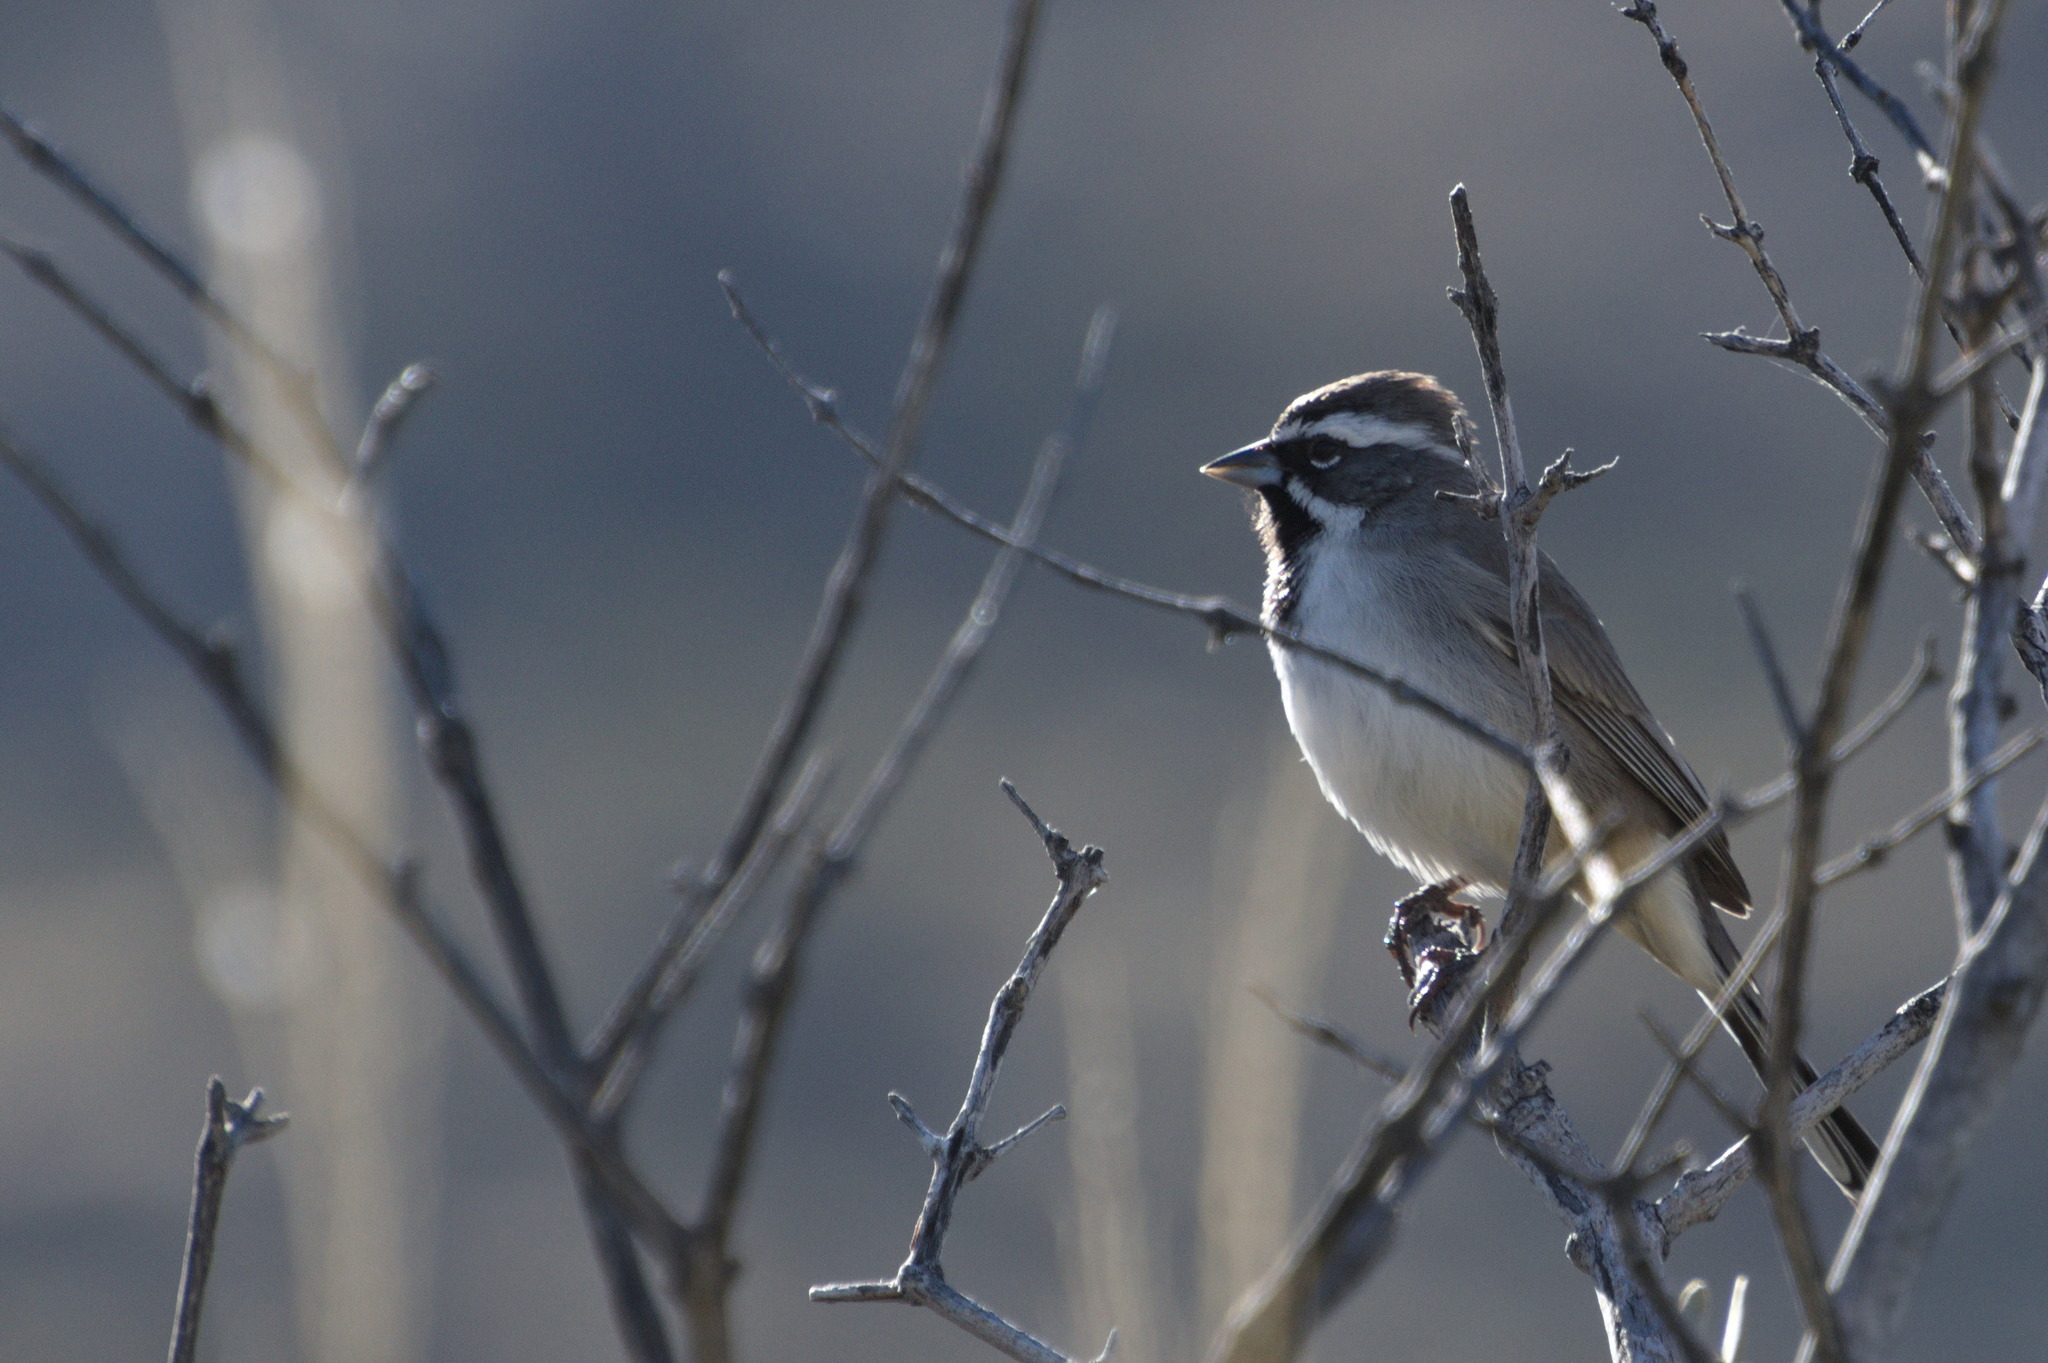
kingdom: Animalia
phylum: Chordata
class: Aves
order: Passeriformes
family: Passerellidae
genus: Amphispiza
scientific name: Amphispiza bilineata
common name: Black-throated sparrow
